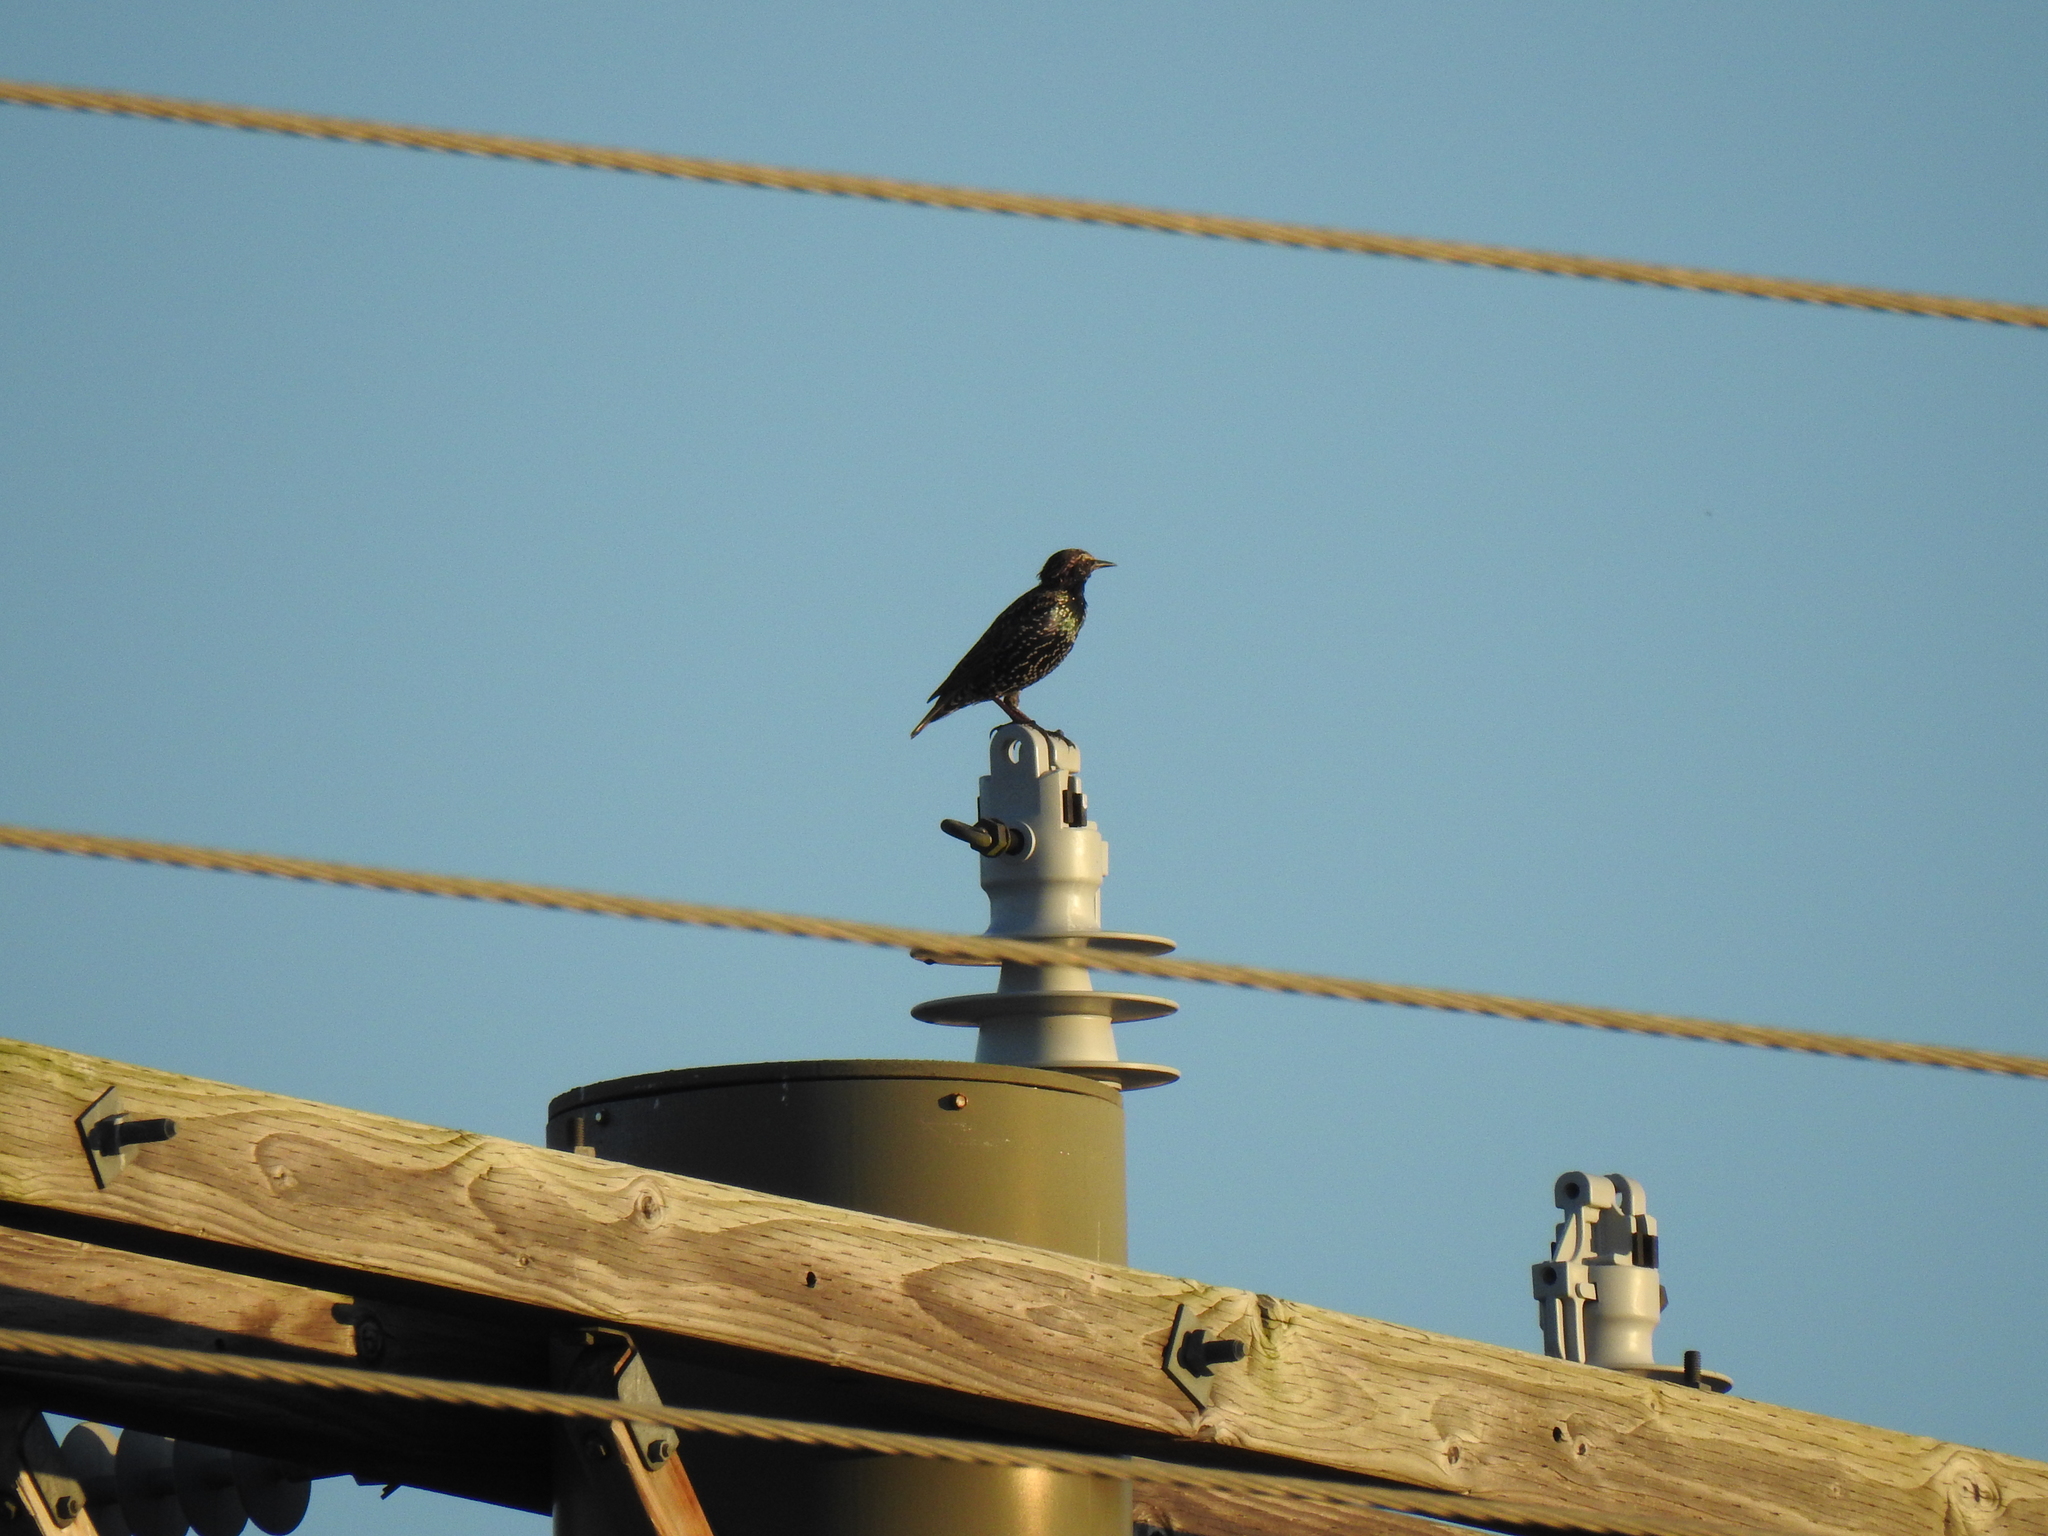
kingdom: Animalia
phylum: Chordata
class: Aves
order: Passeriformes
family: Sturnidae
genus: Sturnus
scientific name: Sturnus vulgaris
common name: Common starling
